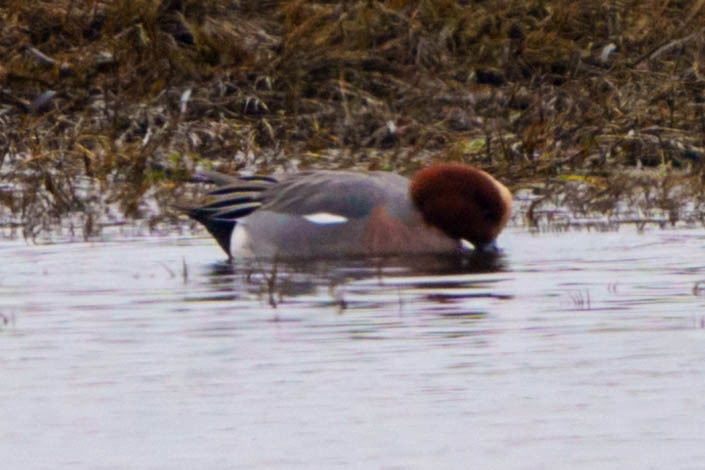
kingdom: Animalia
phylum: Chordata
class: Aves
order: Anseriformes
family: Anatidae
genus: Mareca
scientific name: Mareca penelope
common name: Eurasian wigeon
